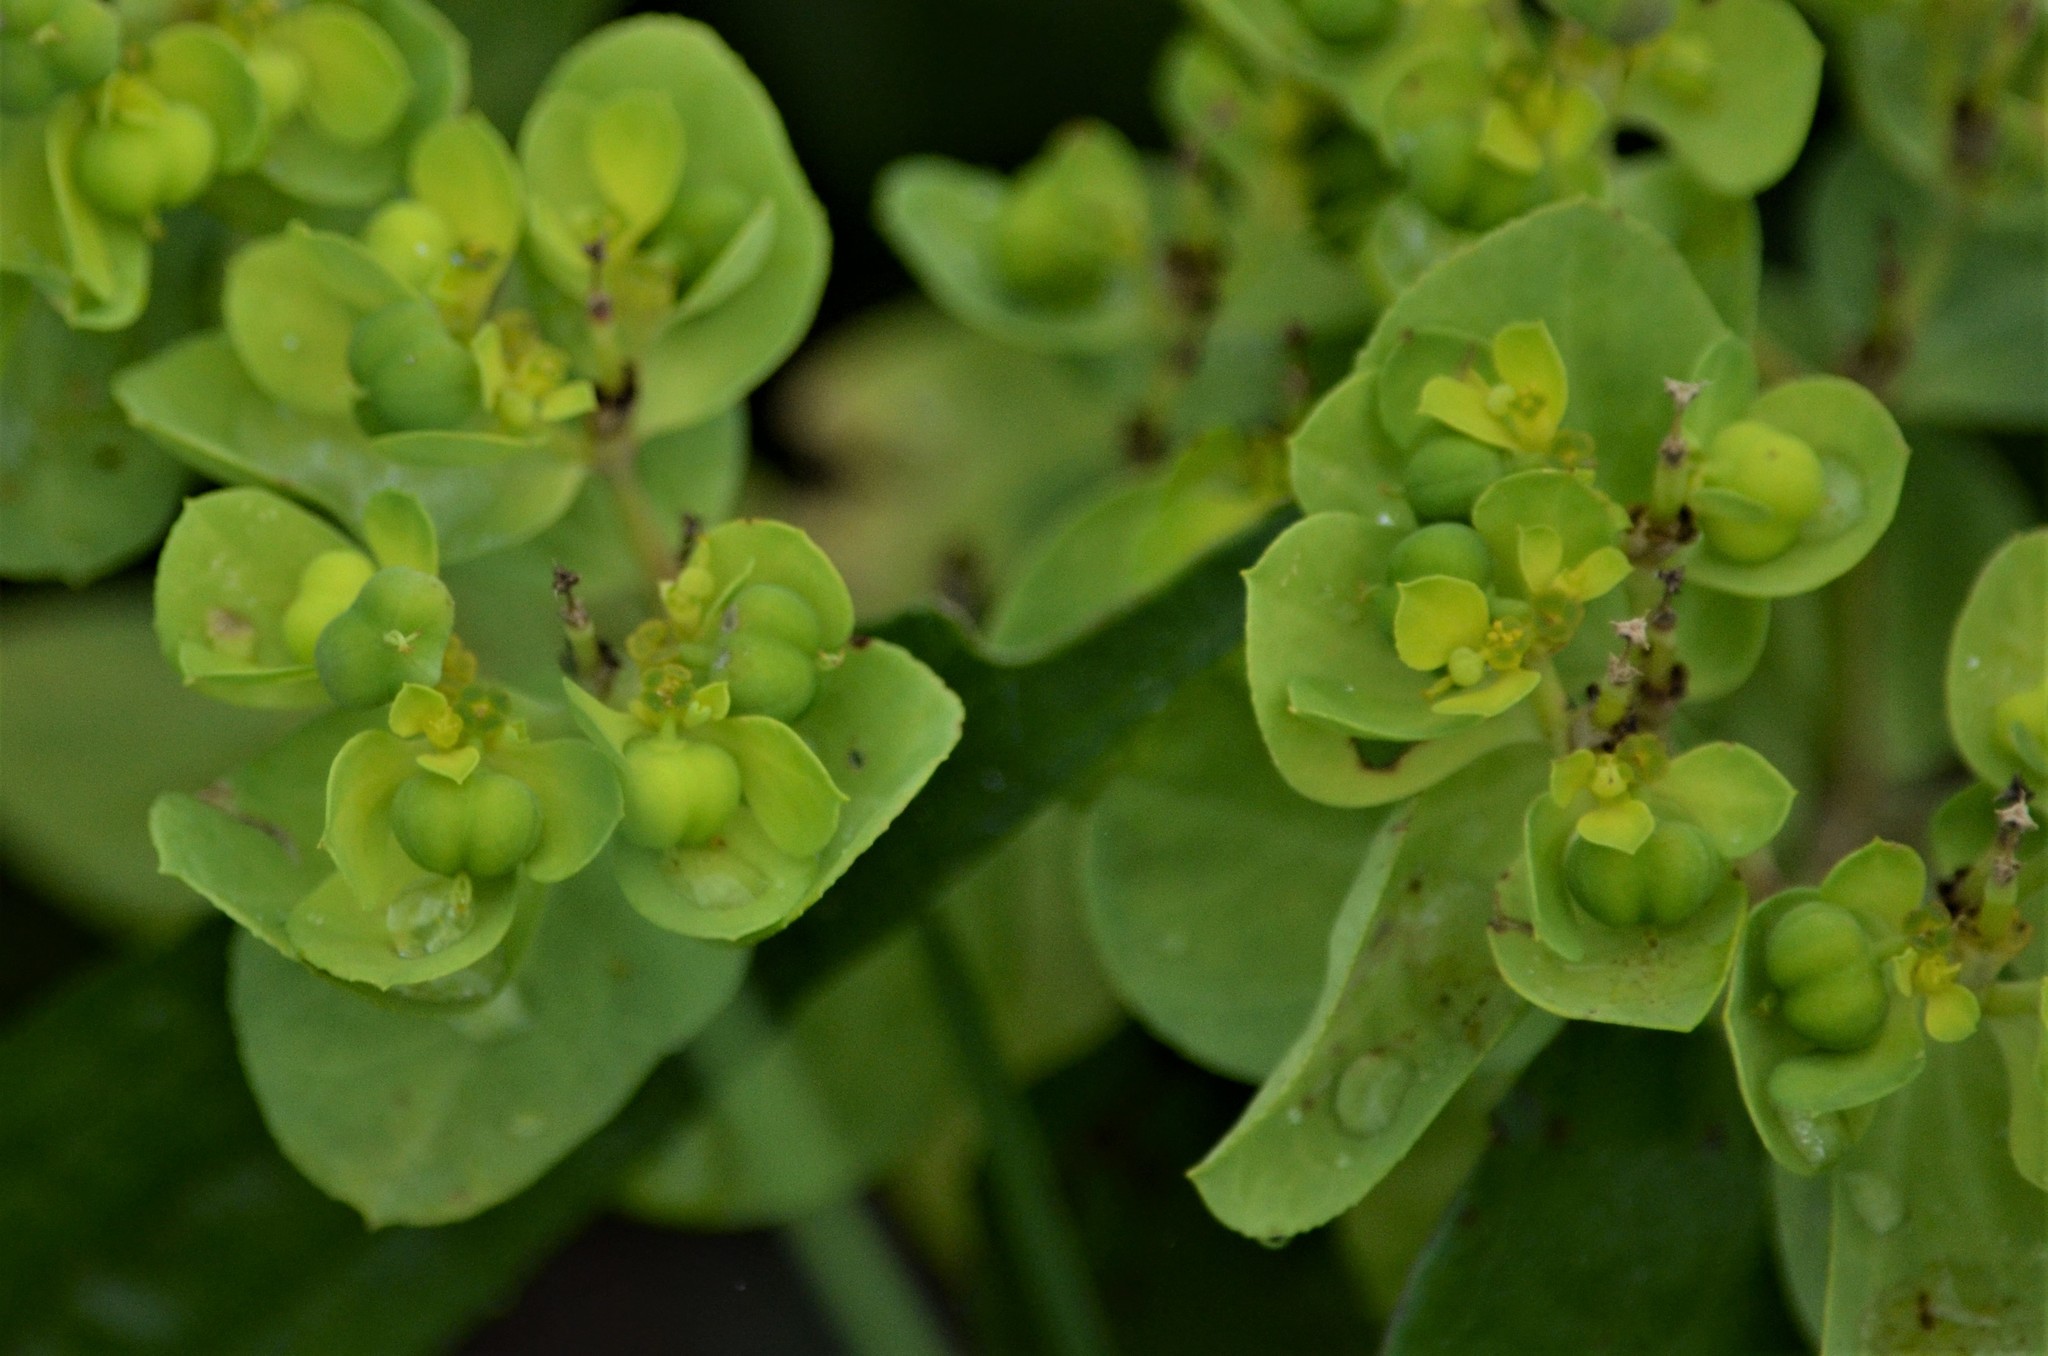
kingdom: Plantae
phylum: Tracheophyta
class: Magnoliopsida
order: Malpighiales
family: Euphorbiaceae
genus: Euphorbia
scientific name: Euphorbia helioscopia
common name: Sun spurge
